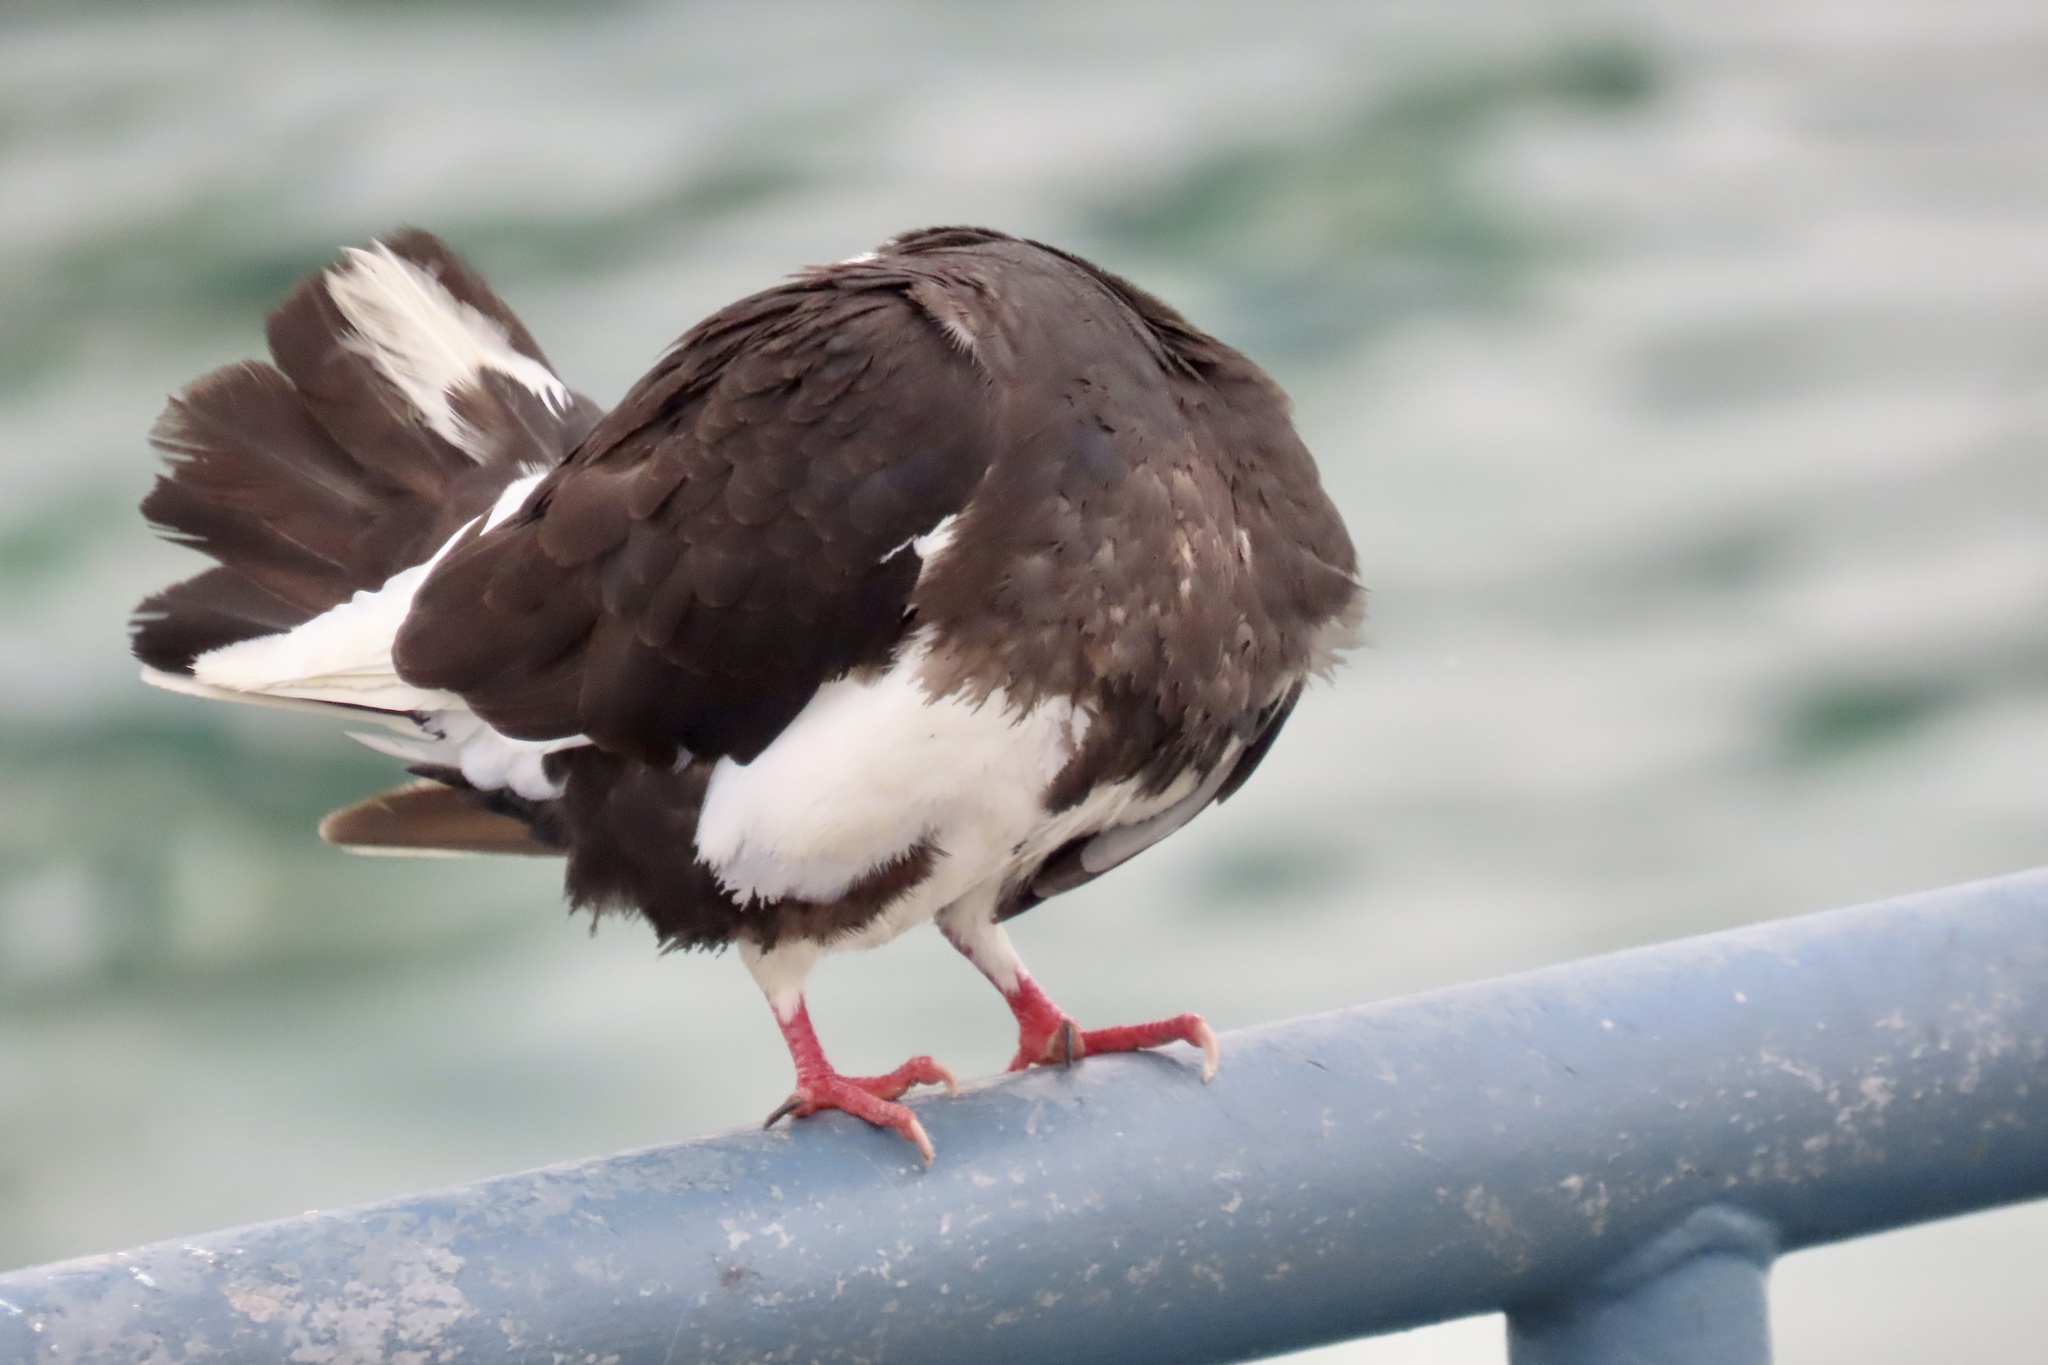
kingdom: Animalia
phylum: Chordata
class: Aves
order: Columbiformes
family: Columbidae
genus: Columba
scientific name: Columba livia
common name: Rock pigeon
